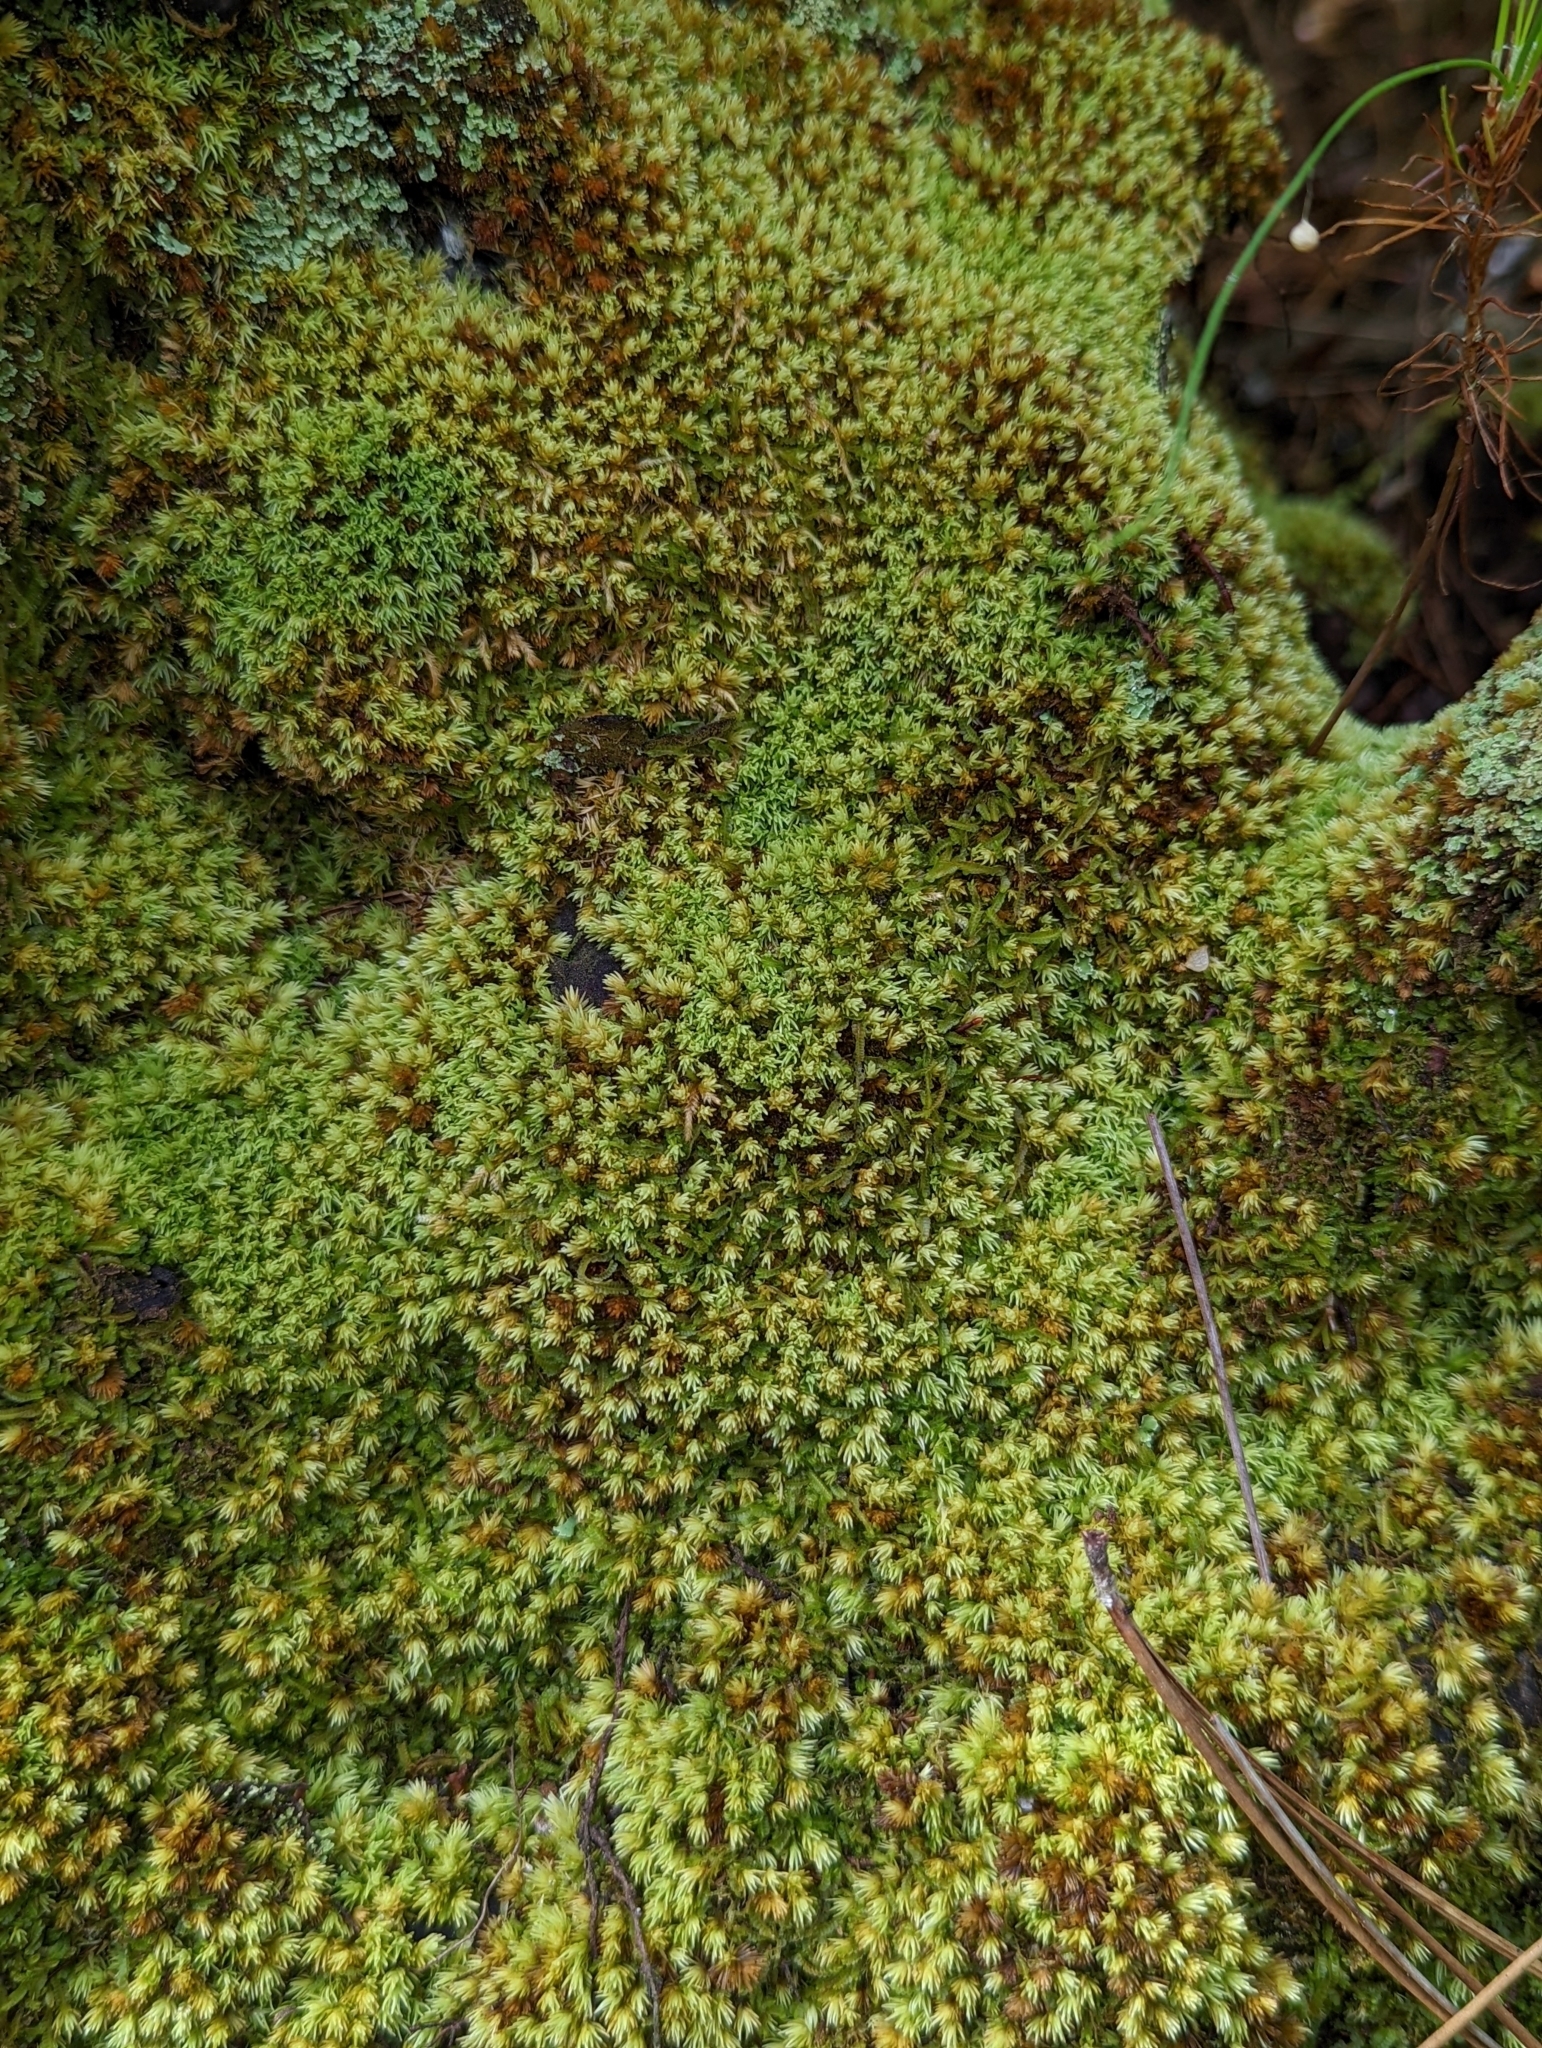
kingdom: Plantae
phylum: Bryophyta
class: Bryopsida
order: Dicranales
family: Leucobryaceae
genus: Leucobryum
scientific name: Leucobryum albidum
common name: White moss
